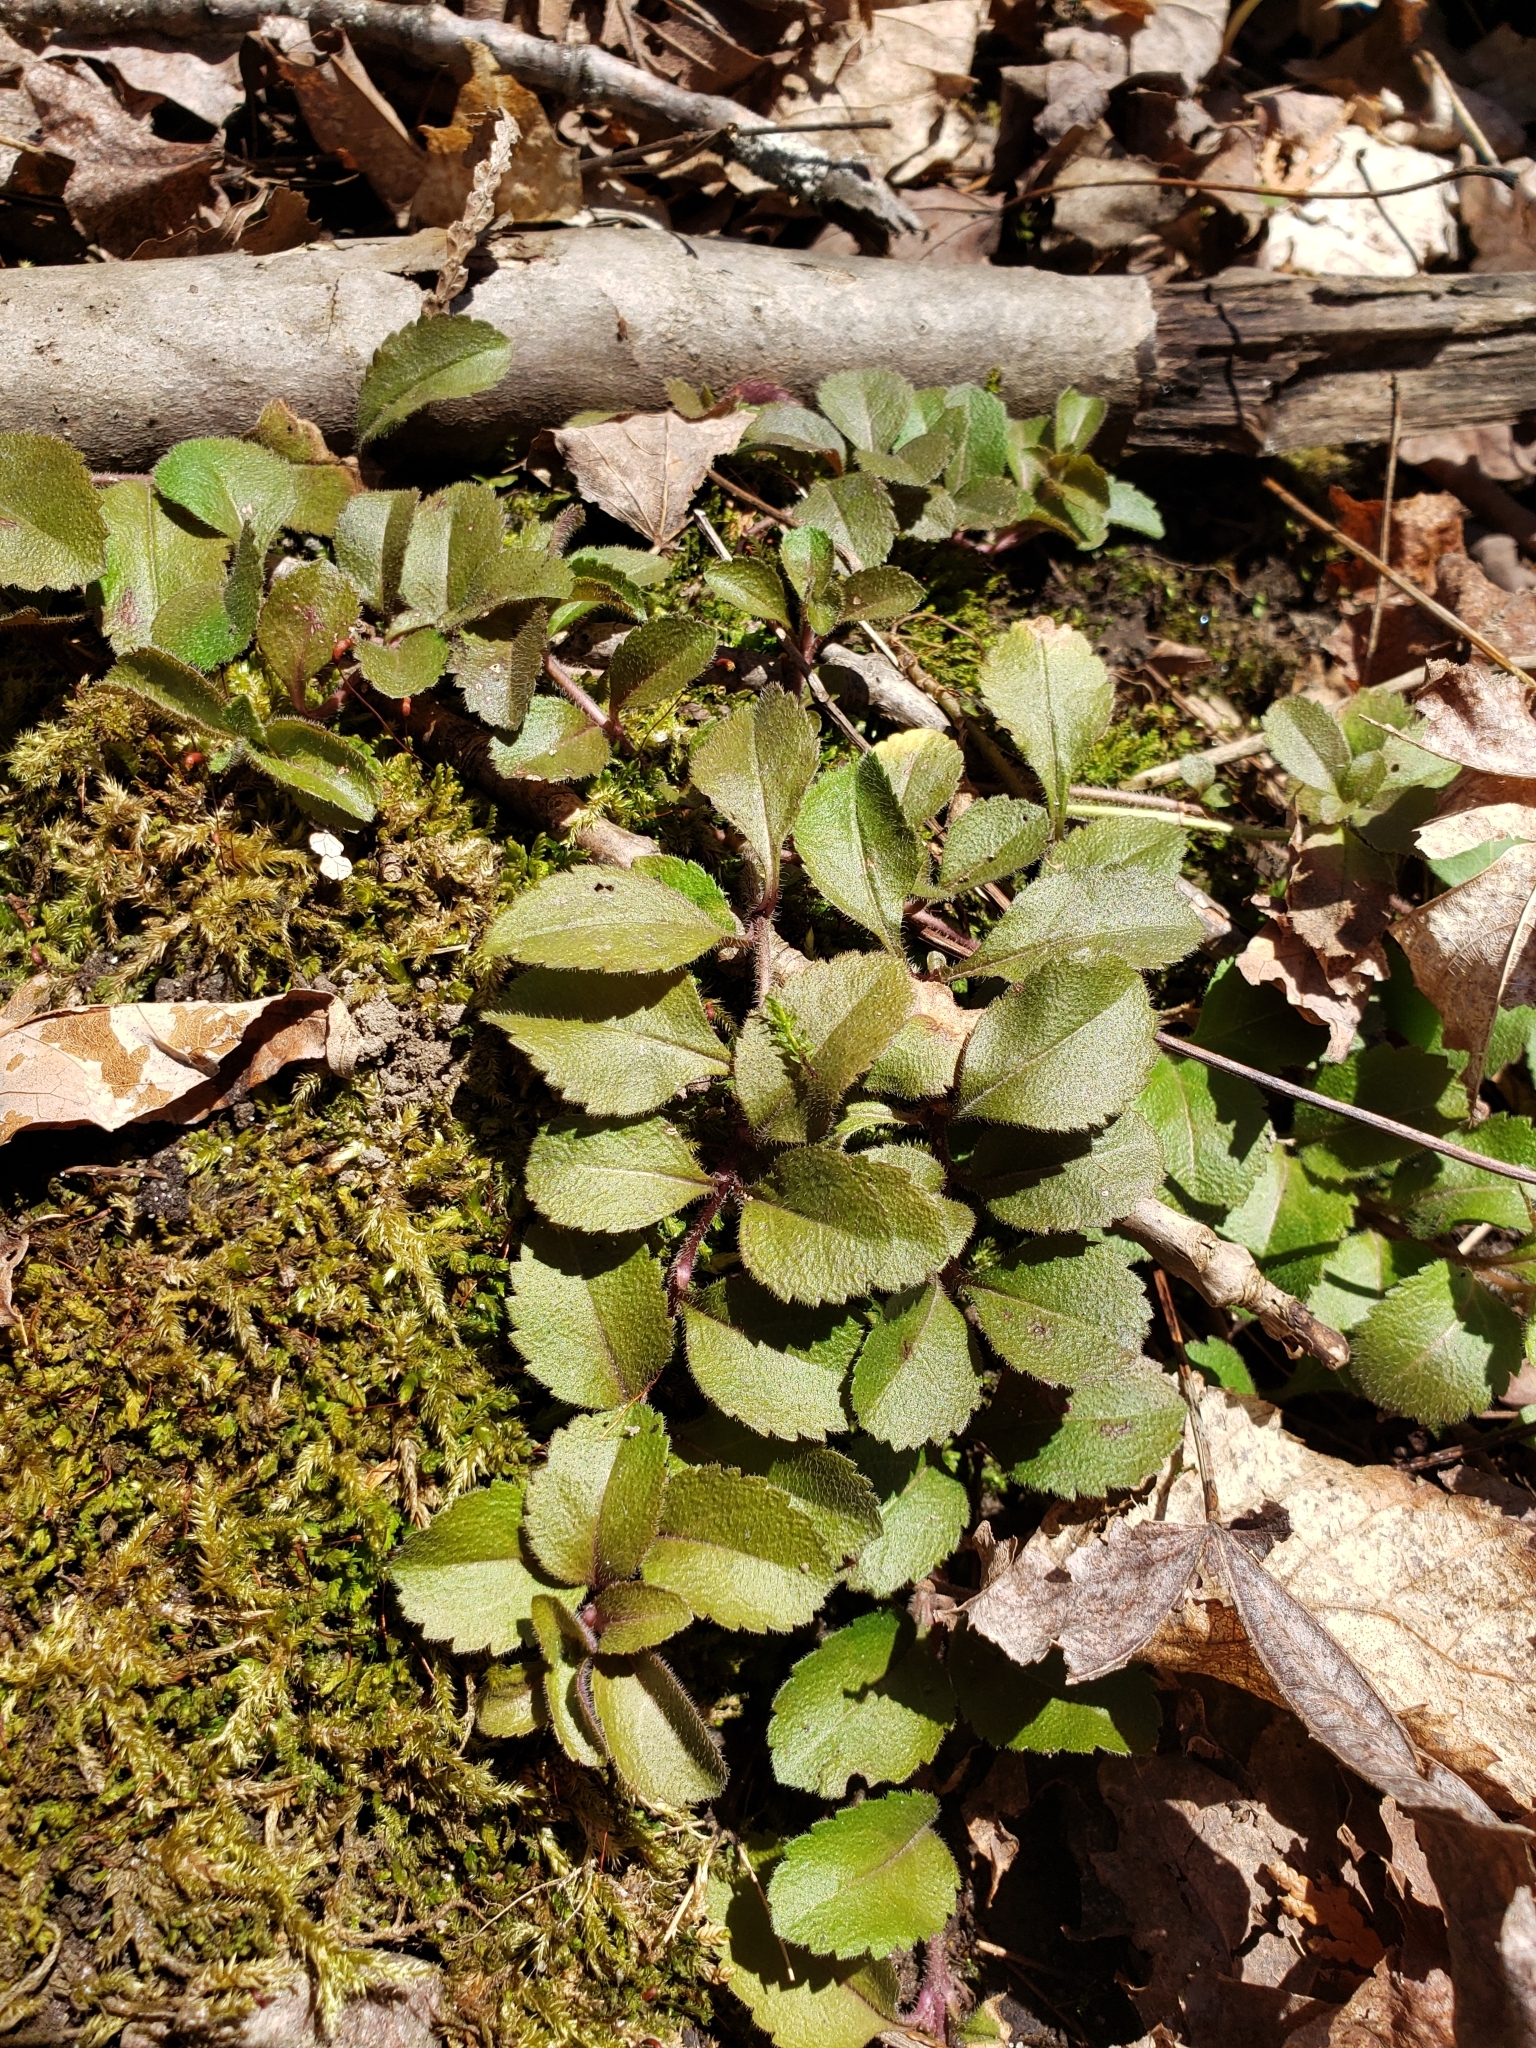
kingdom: Plantae
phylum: Tracheophyta
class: Magnoliopsida
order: Lamiales
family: Plantaginaceae
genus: Veronica
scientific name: Veronica officinalis
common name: Common speedwell
